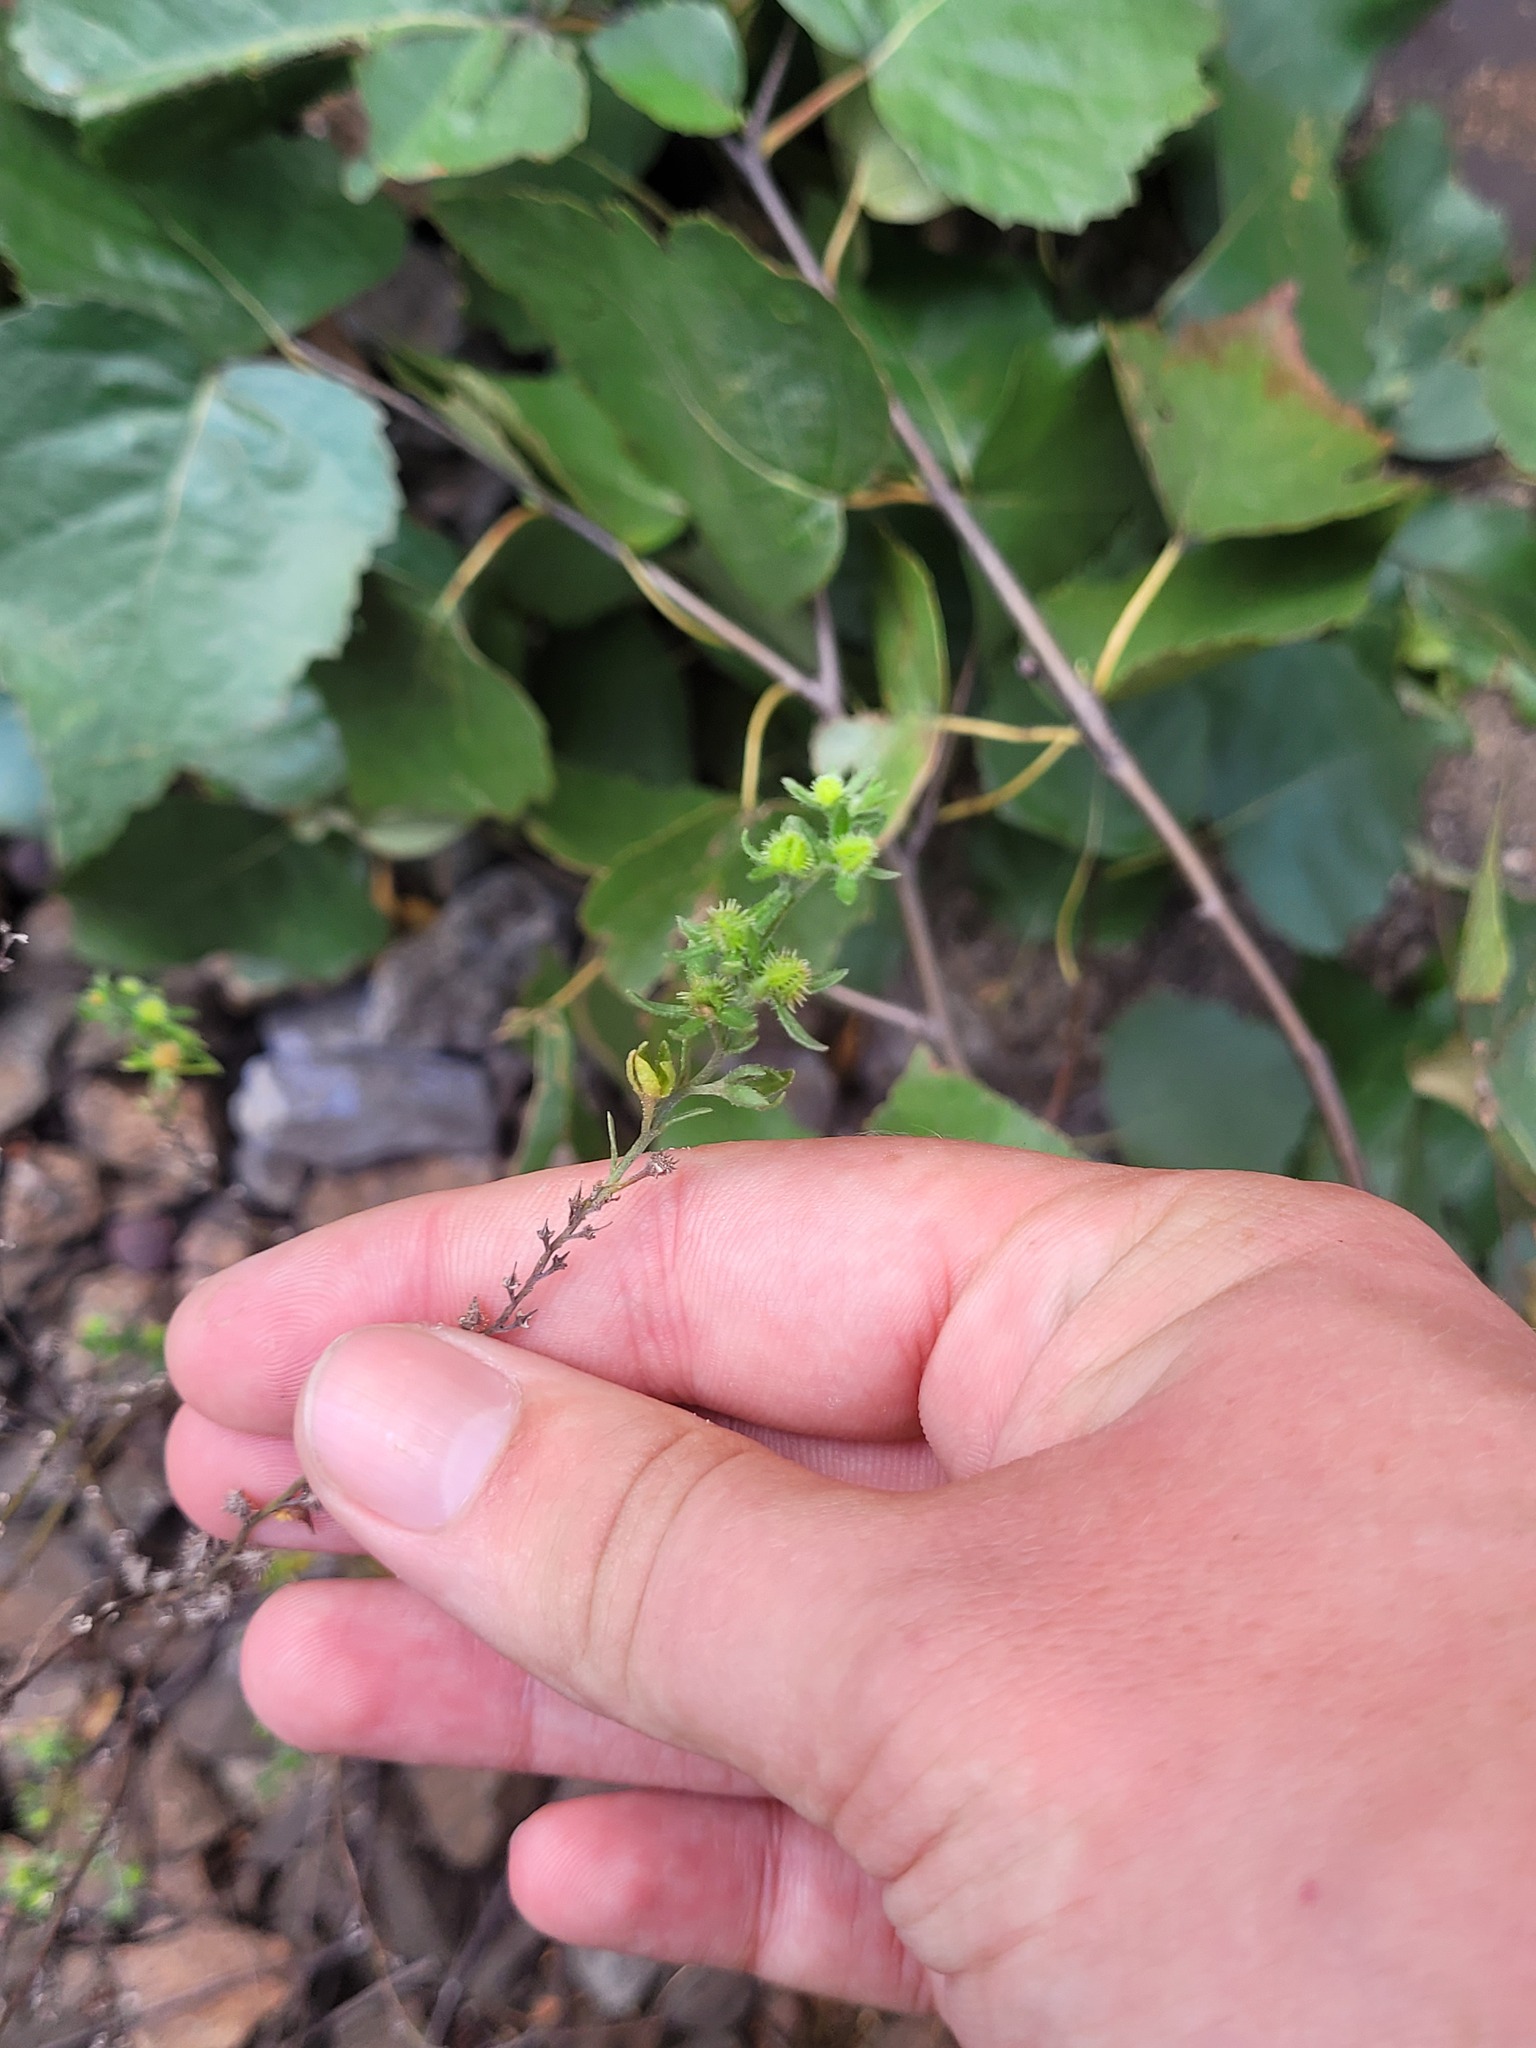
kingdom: Plantae
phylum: Tracheophyta
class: Magnoliopsida
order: Boraginales
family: Boraginaceae
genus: Lappula
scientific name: Lappula squarrosa
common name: European stickseed
